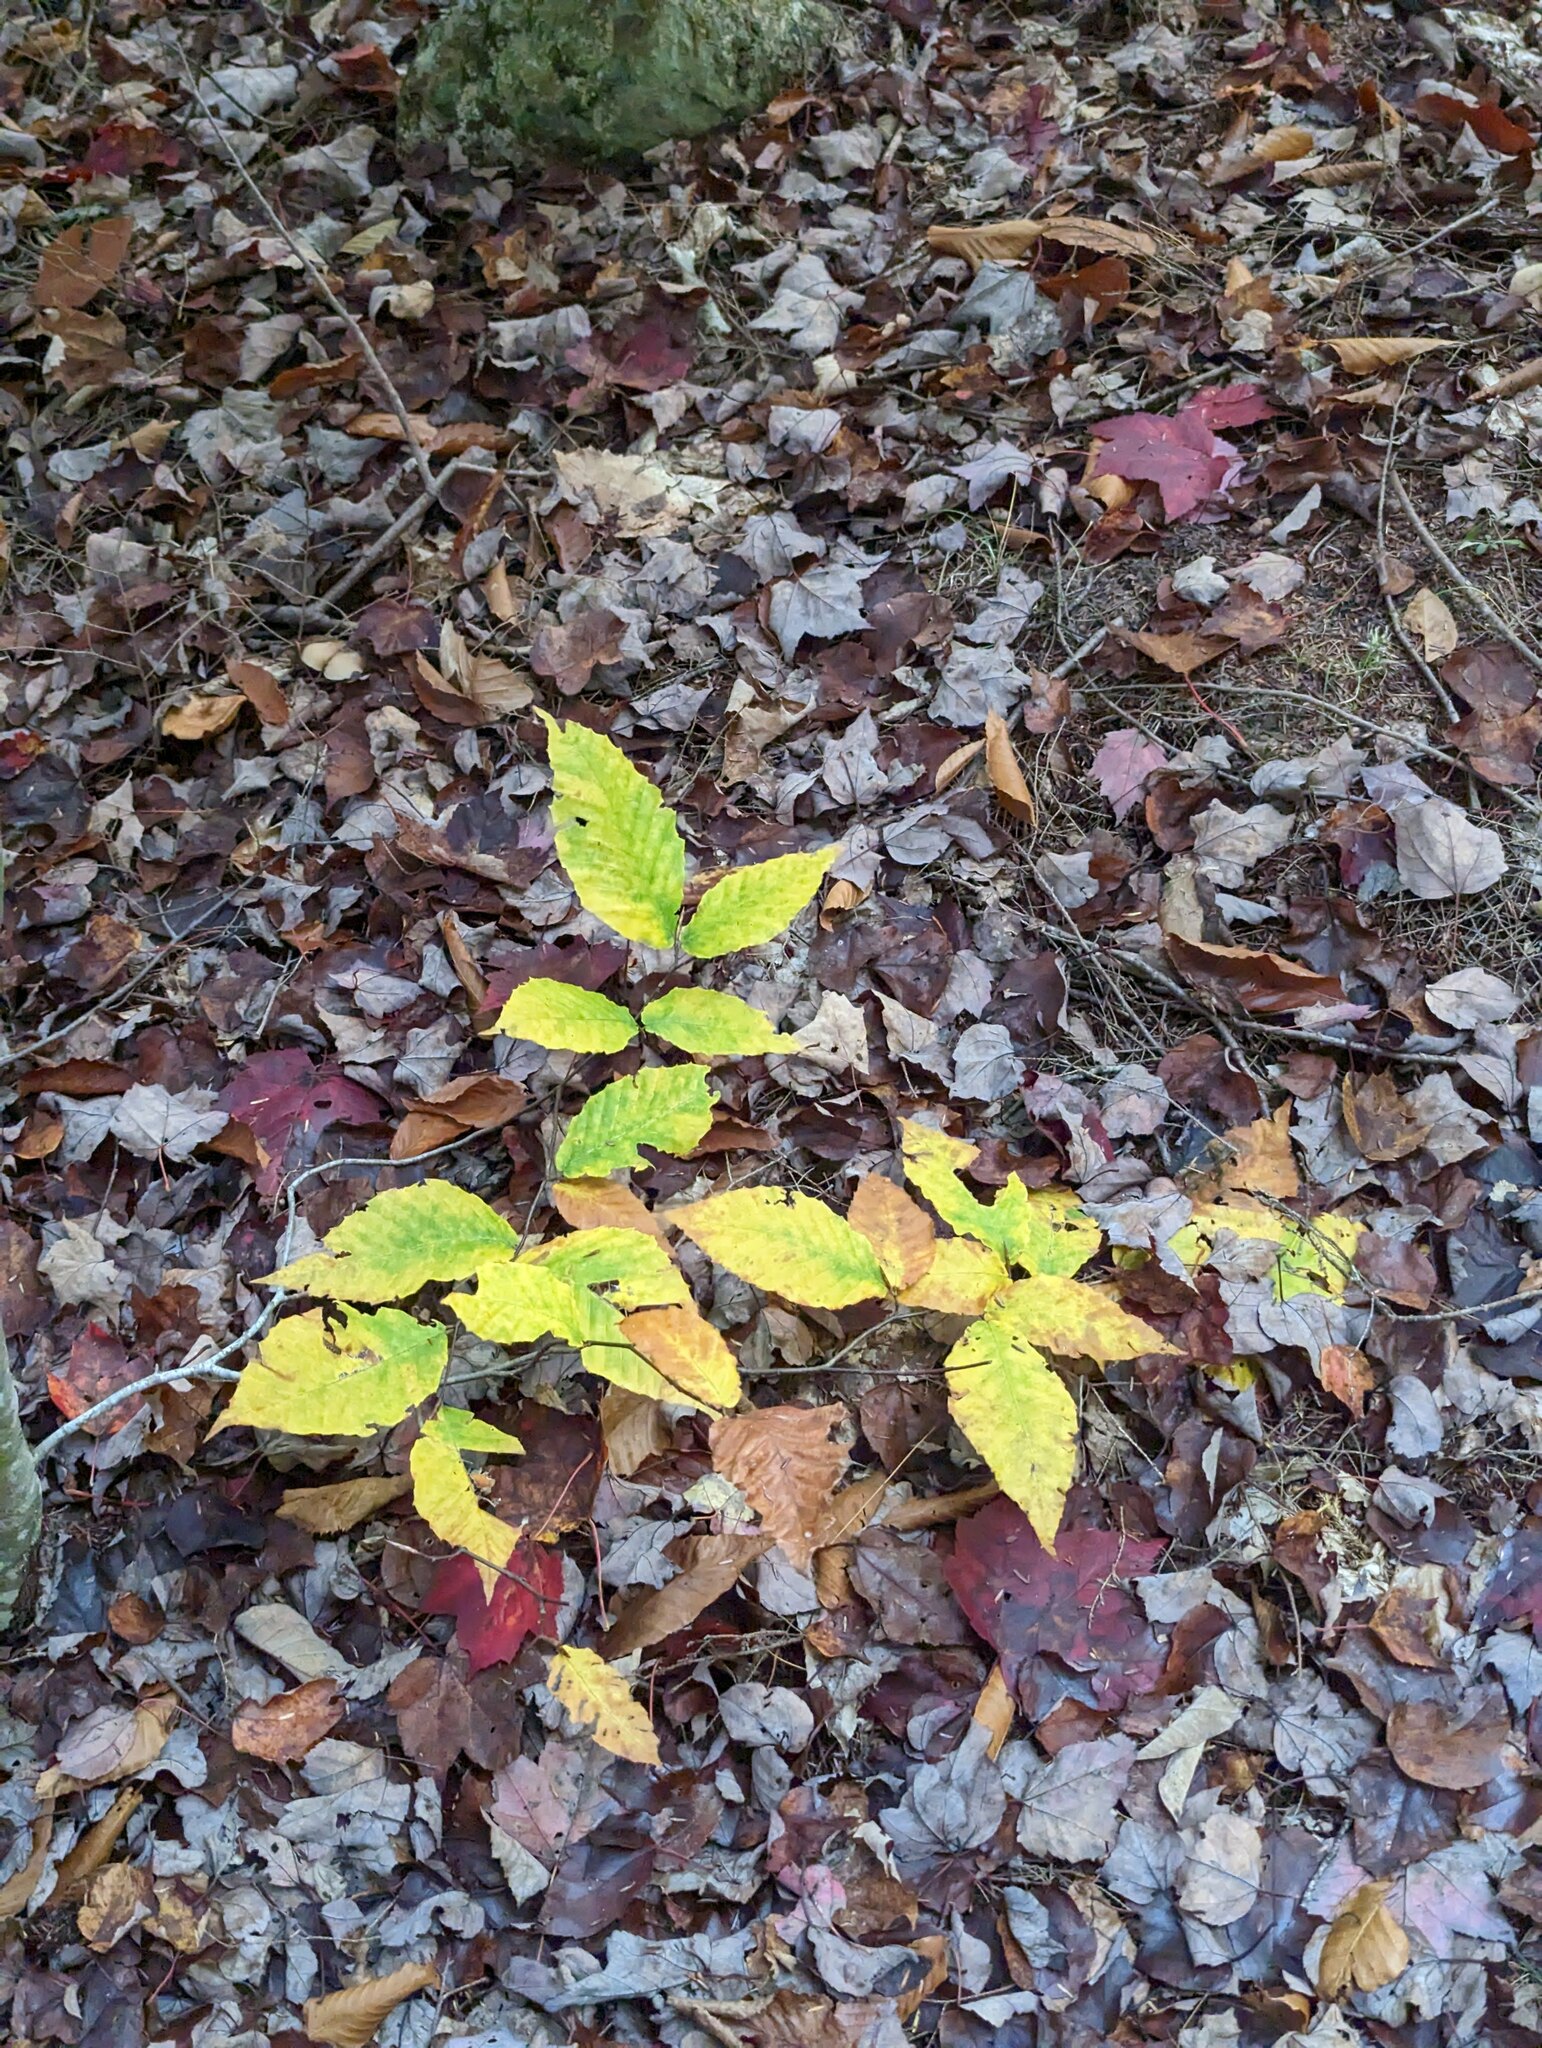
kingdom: Plantae
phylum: Tracheophyta
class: Magnoliopsida
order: Fagales
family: Fagaceae
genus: Fagus
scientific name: Fagus grandifolia
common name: American beech
